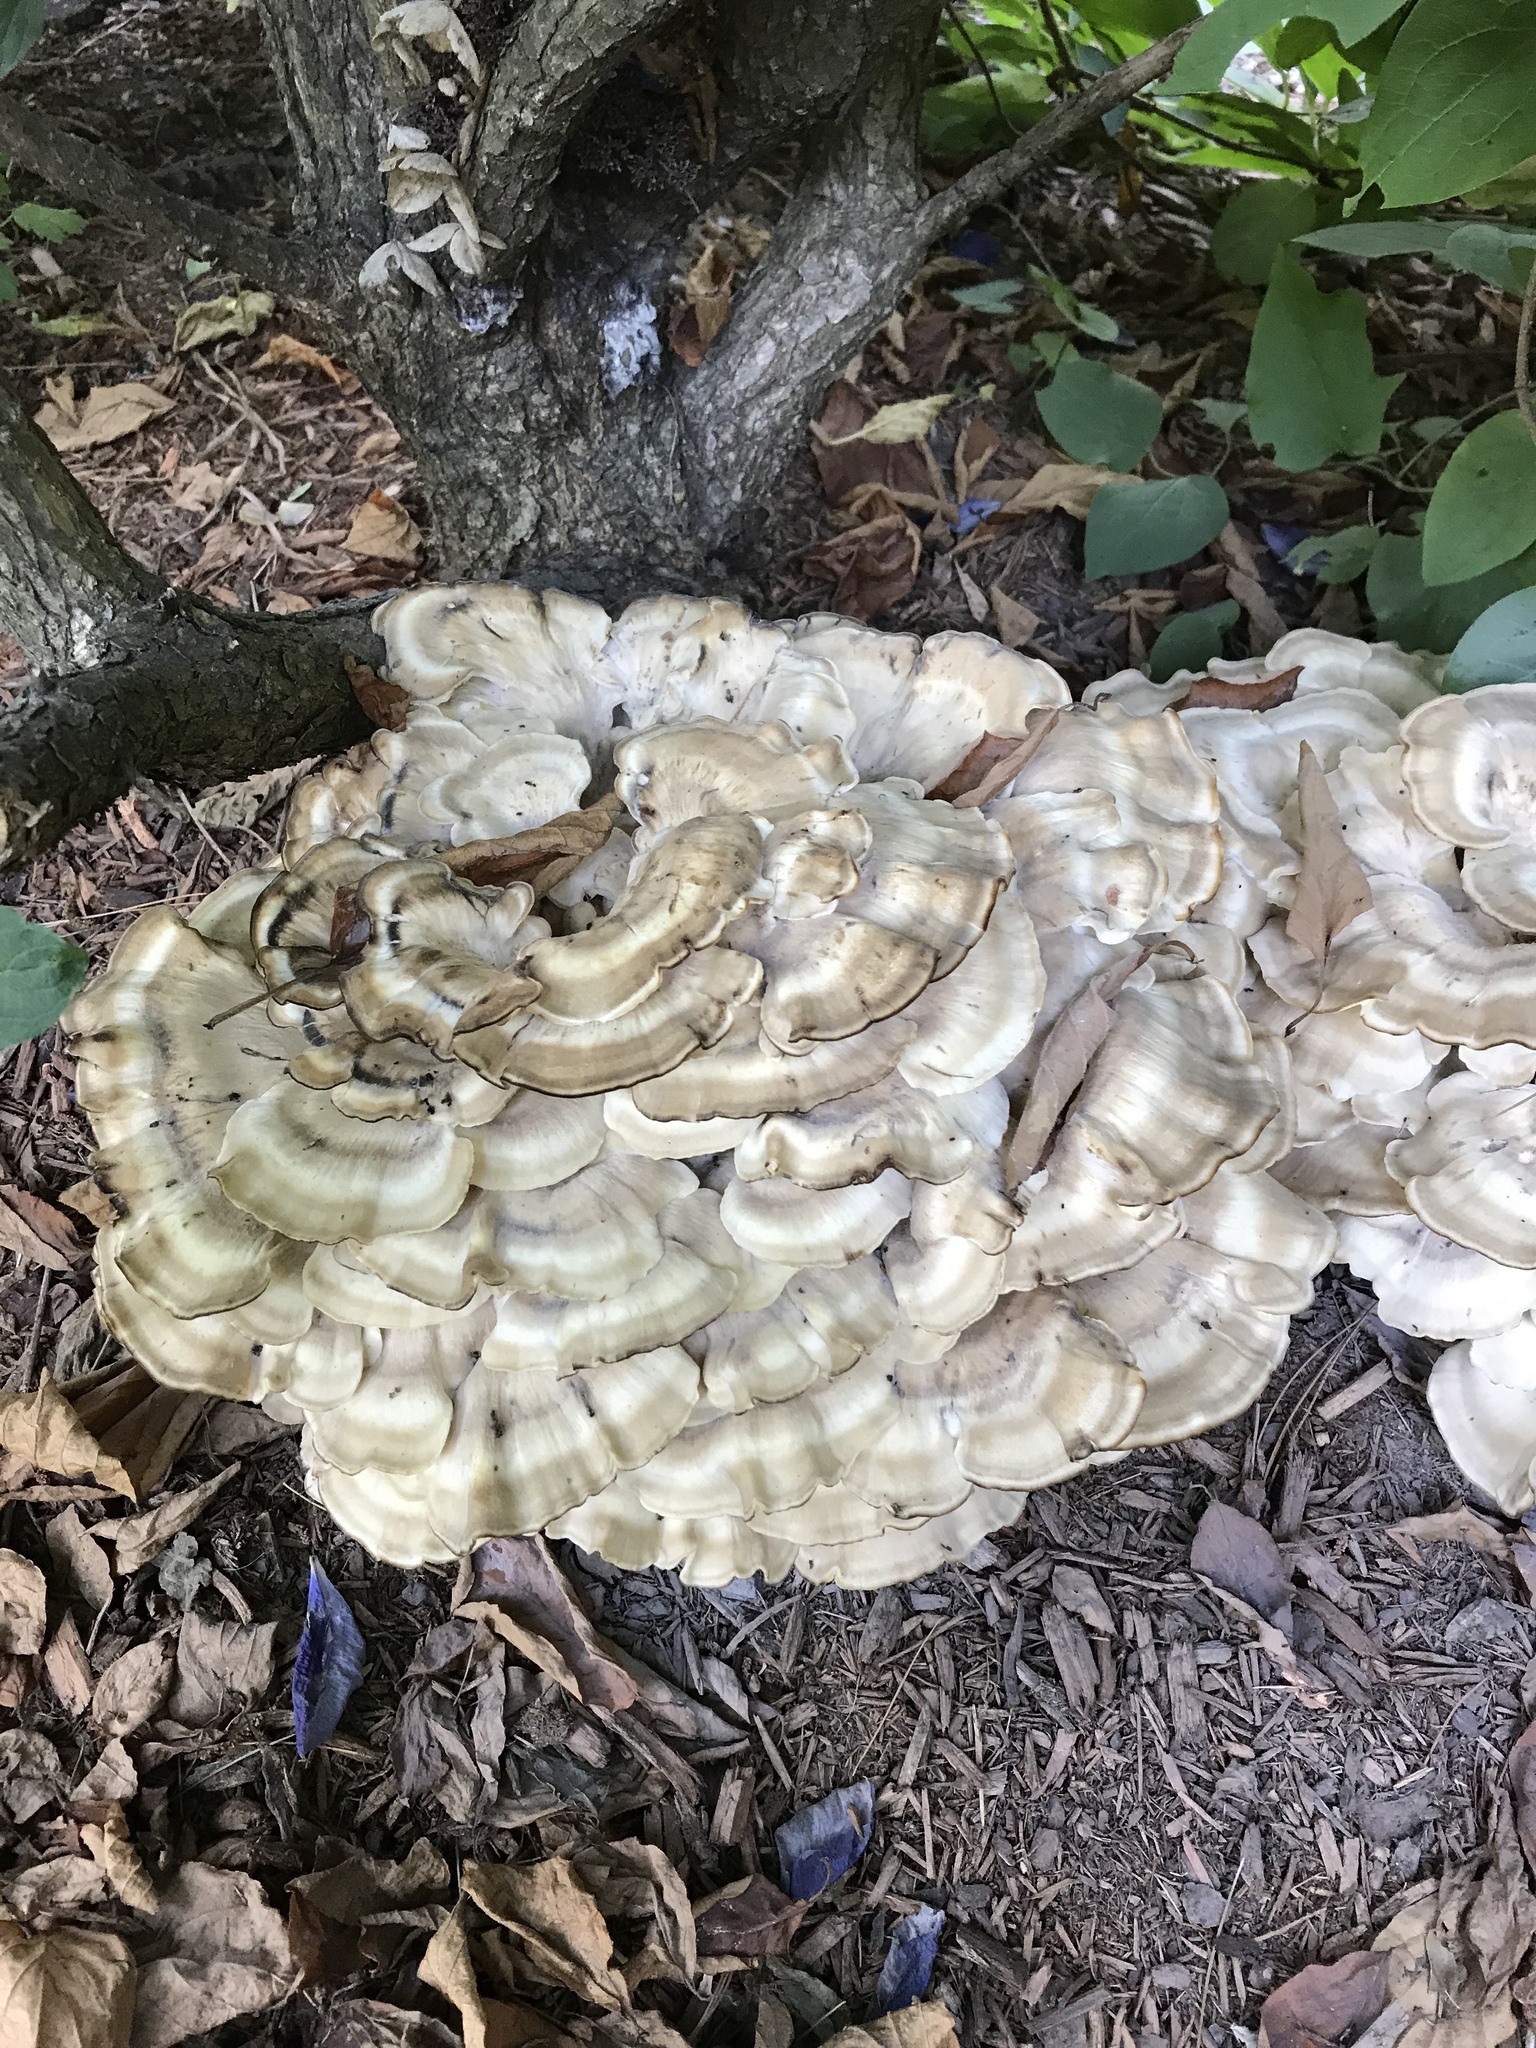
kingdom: Fungi
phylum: Basidiomycota
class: Agaricomycetes
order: Polyporales
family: Meripilaceae
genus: Meripilus
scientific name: Meripilus sumstinei
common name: Black-staining polypore
